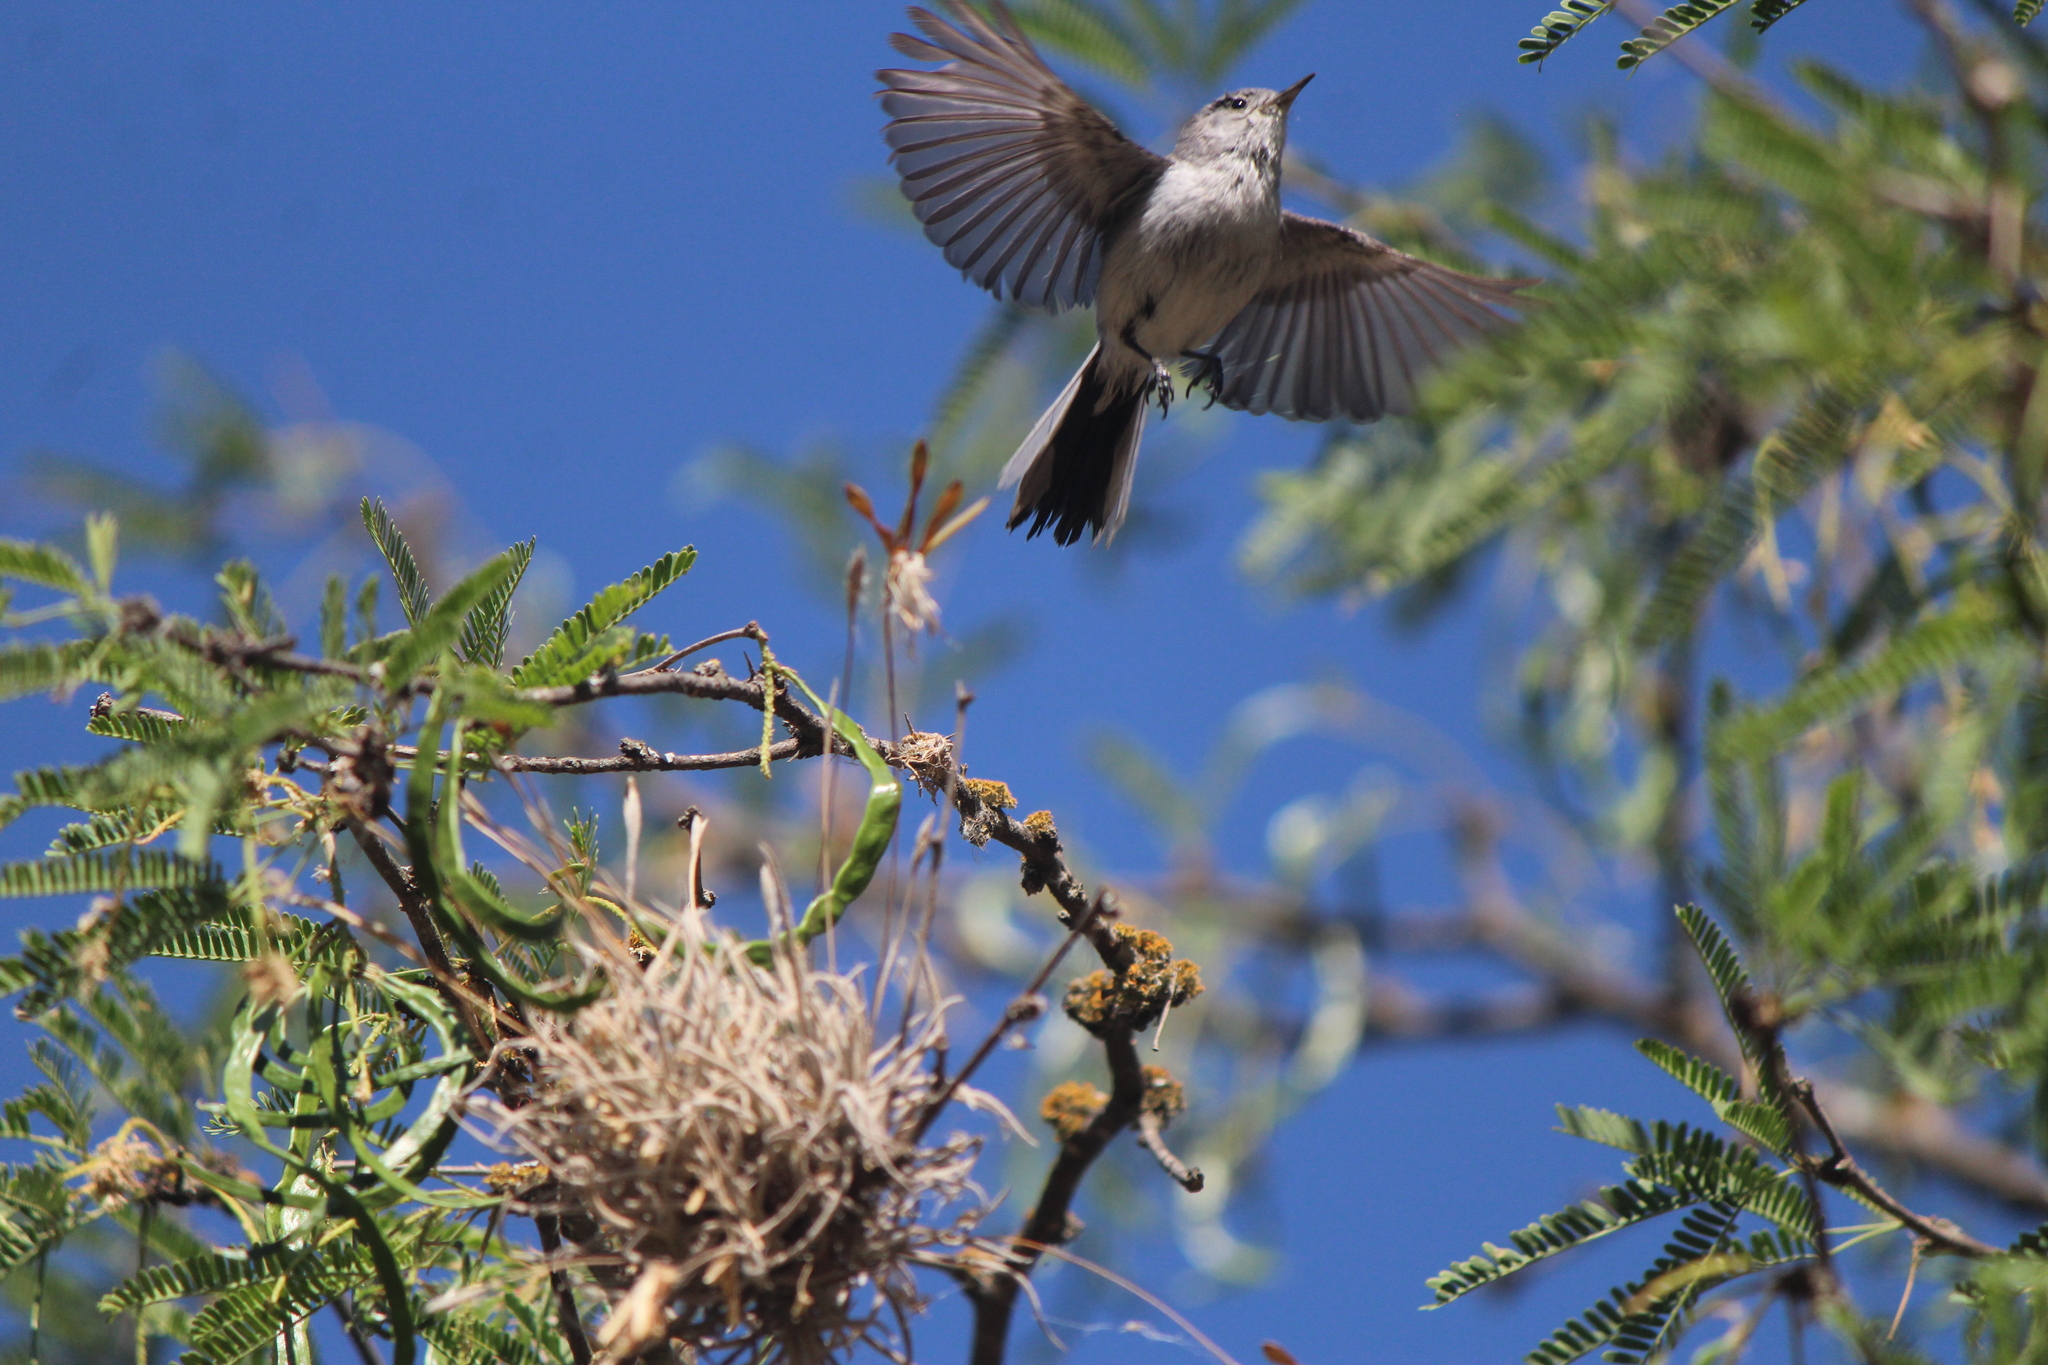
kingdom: Animalia
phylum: Chordata
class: Aves
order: Passeriformes
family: Polioptilidae
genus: Polioptila
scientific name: Polioptila caerulea
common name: Blue-gray gnatcatcher
